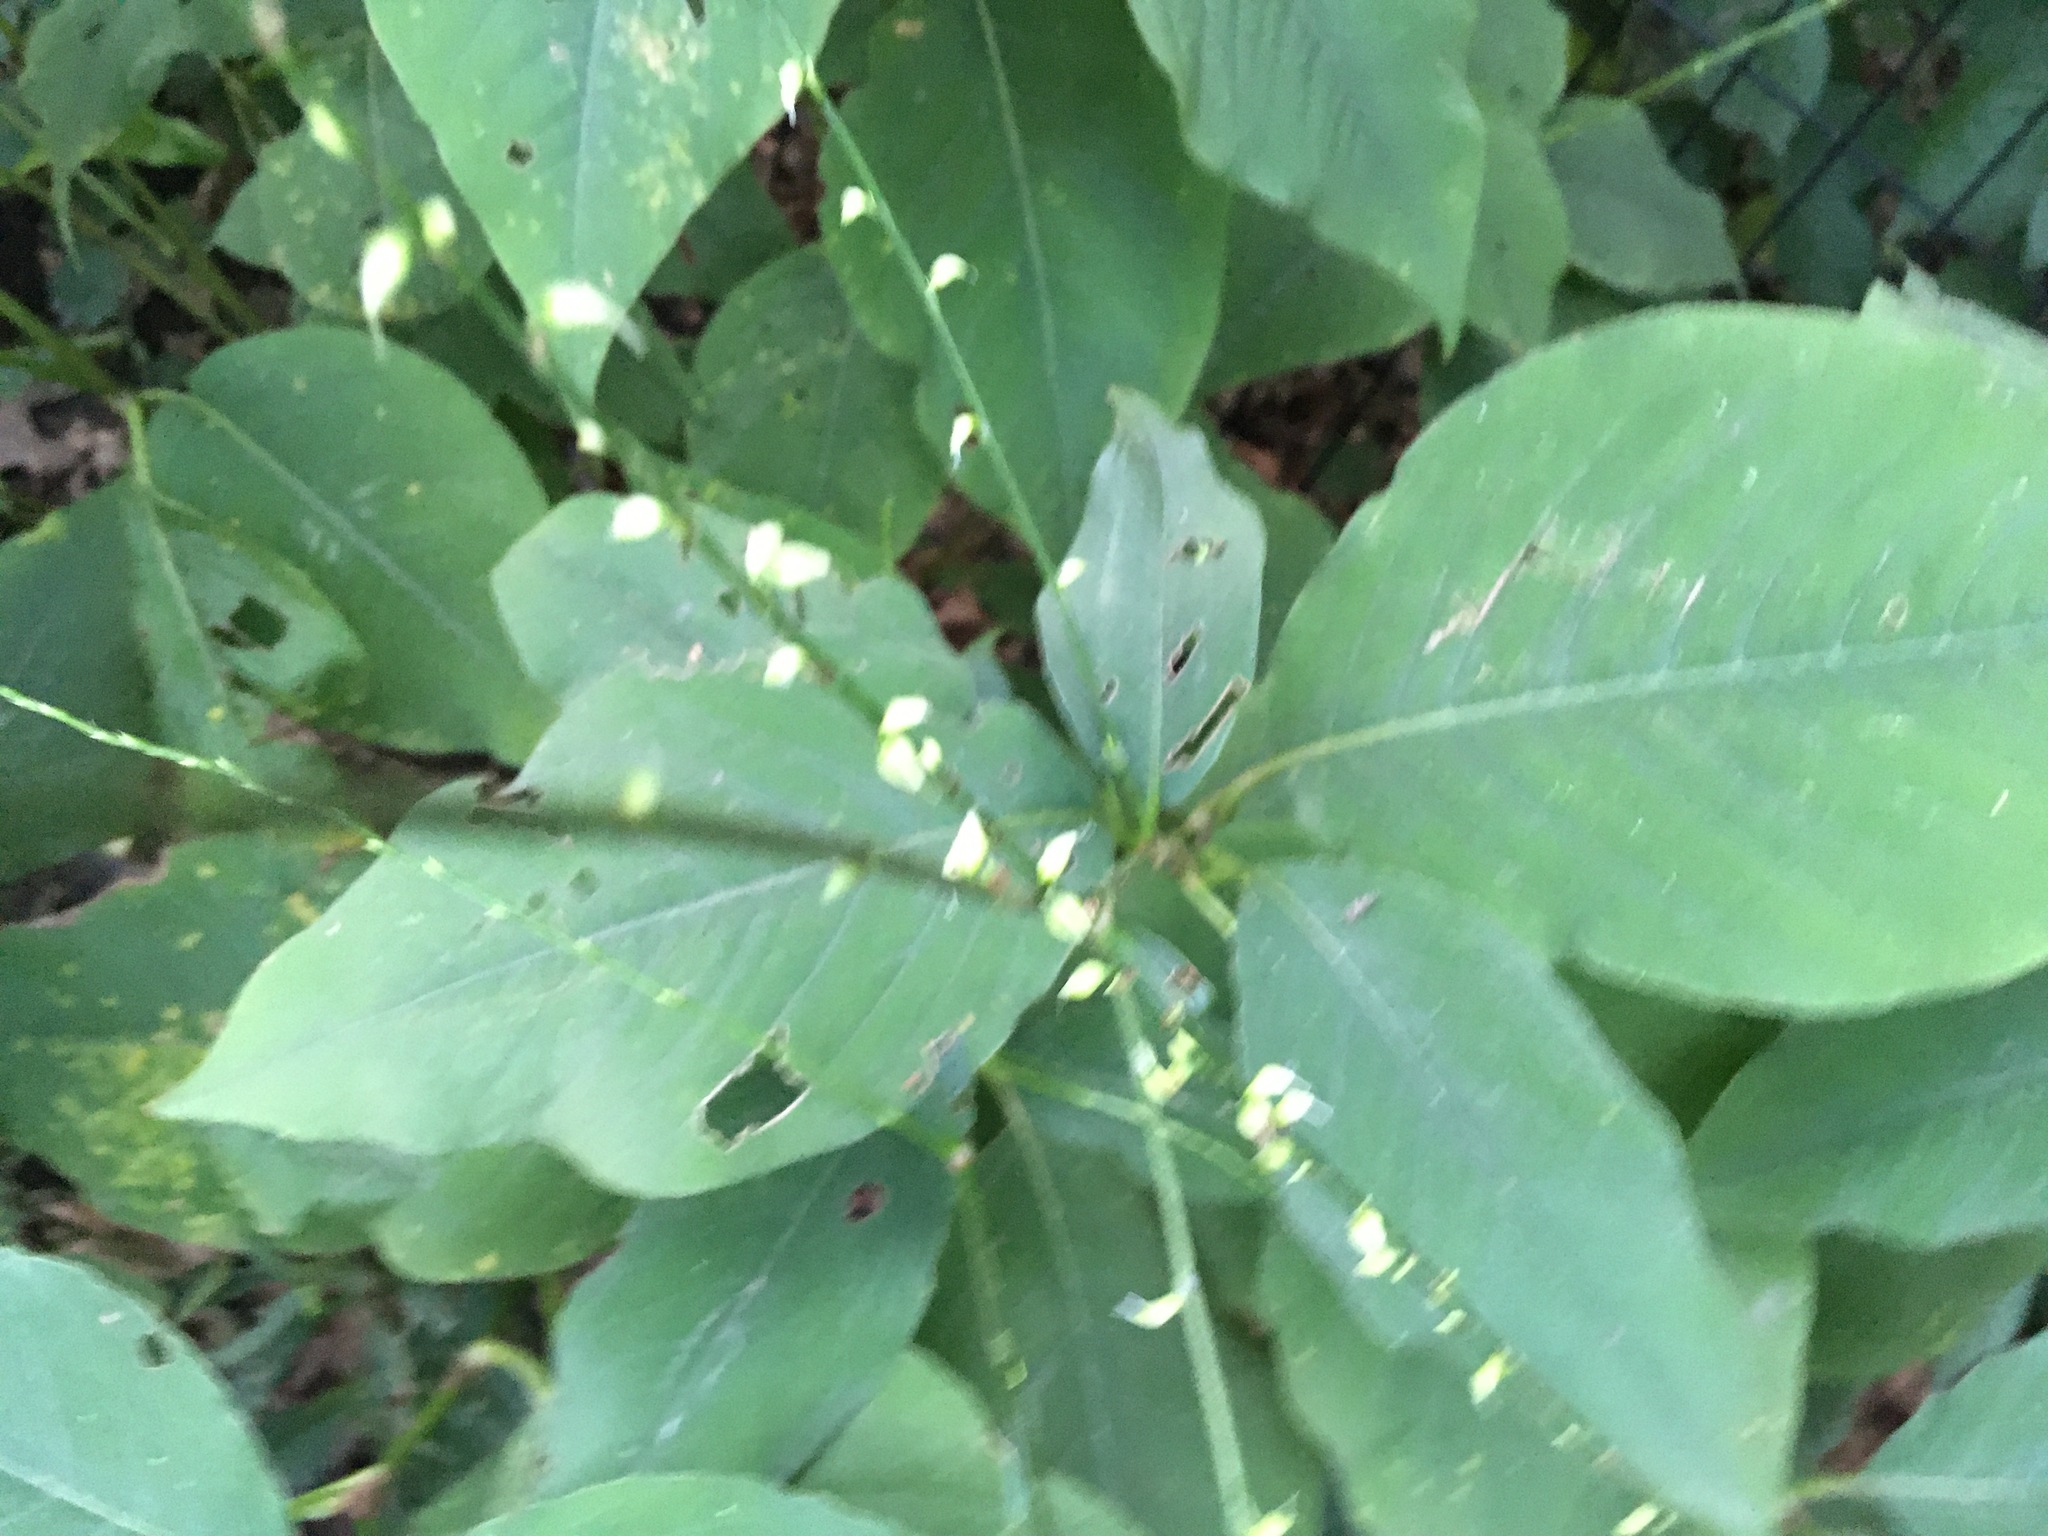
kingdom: Plantae
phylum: Tracheophyta
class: Magnoliopsida
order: Caryophyllales
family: Polygonaceae
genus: Persicaria
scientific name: Persicaria virginiana
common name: Jumpseed
